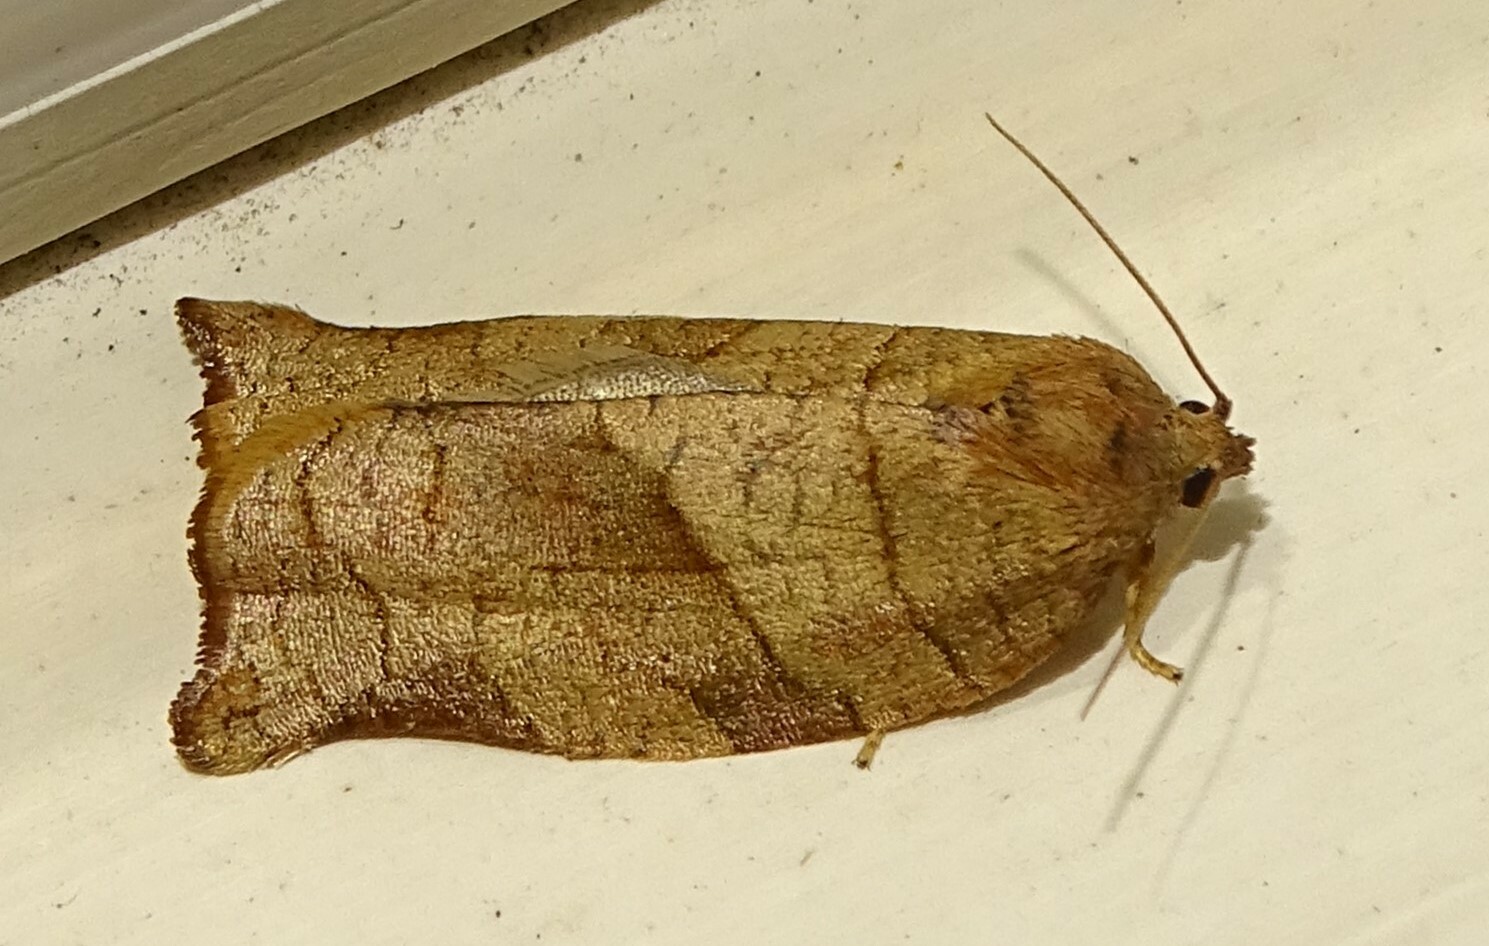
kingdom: Animalia
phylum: Arthropoda
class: Insecta
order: Lepidoptera
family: Tortricidae
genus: Choristoneura
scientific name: Choristoneura rosaceana
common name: Oblique-banded leafroller moth
